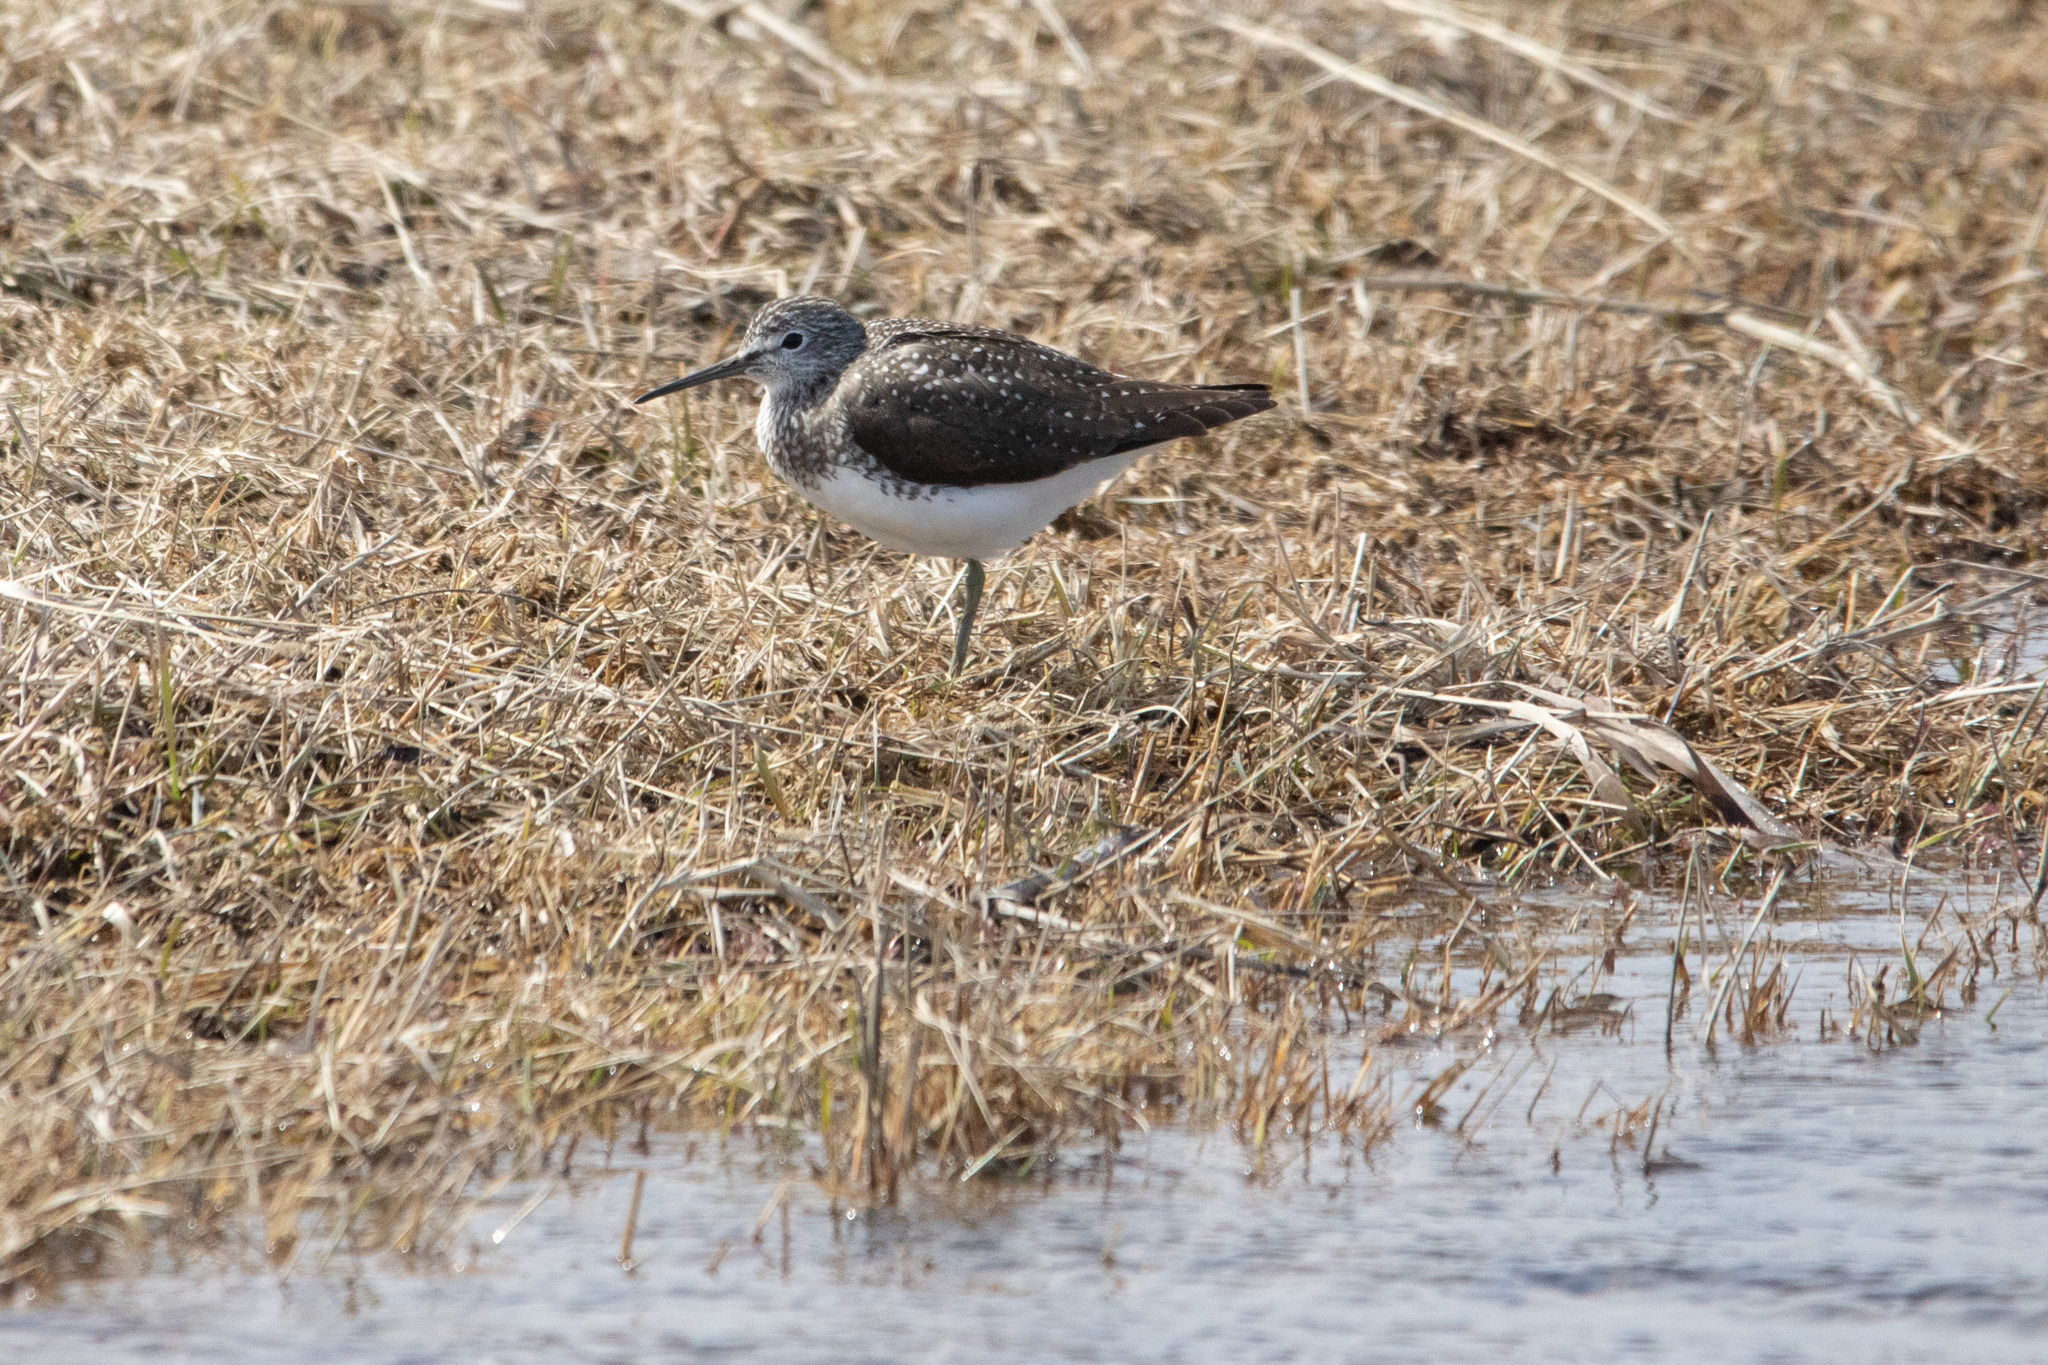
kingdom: Animalia
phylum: Chordata
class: Aves
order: Charadriiformes
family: Scolopacidae
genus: Tringa
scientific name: Tringa ochropus
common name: Green sandpiper
